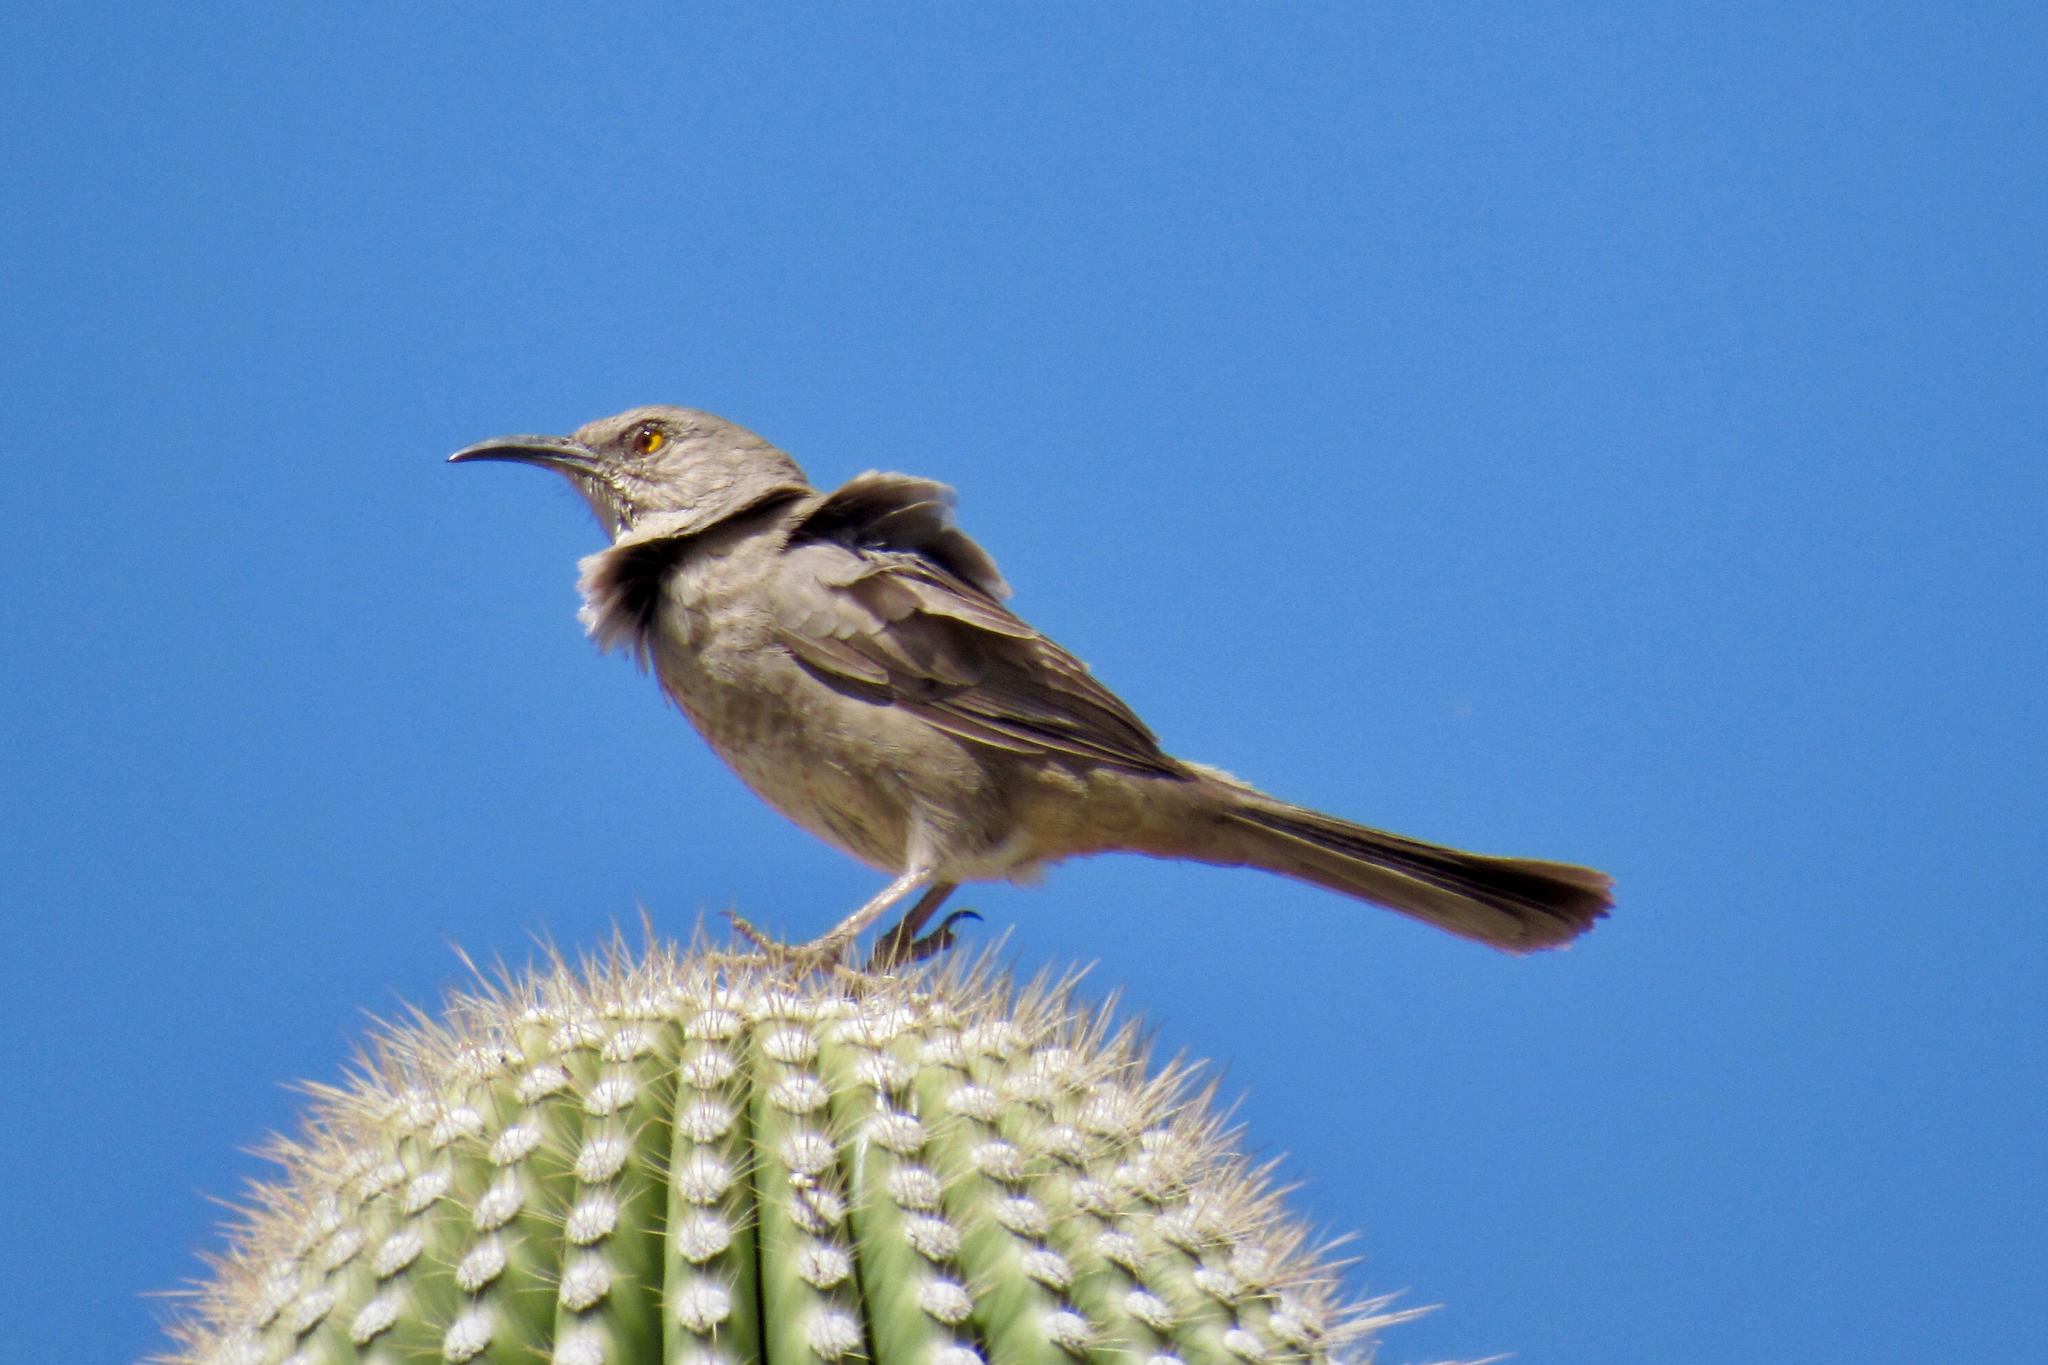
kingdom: Animalia
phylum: Chordata
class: Aves
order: Passeriformes
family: Mimidae
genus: Toxostoma
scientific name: Toxostoma curvirostre
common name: Curve-billed thrasher
